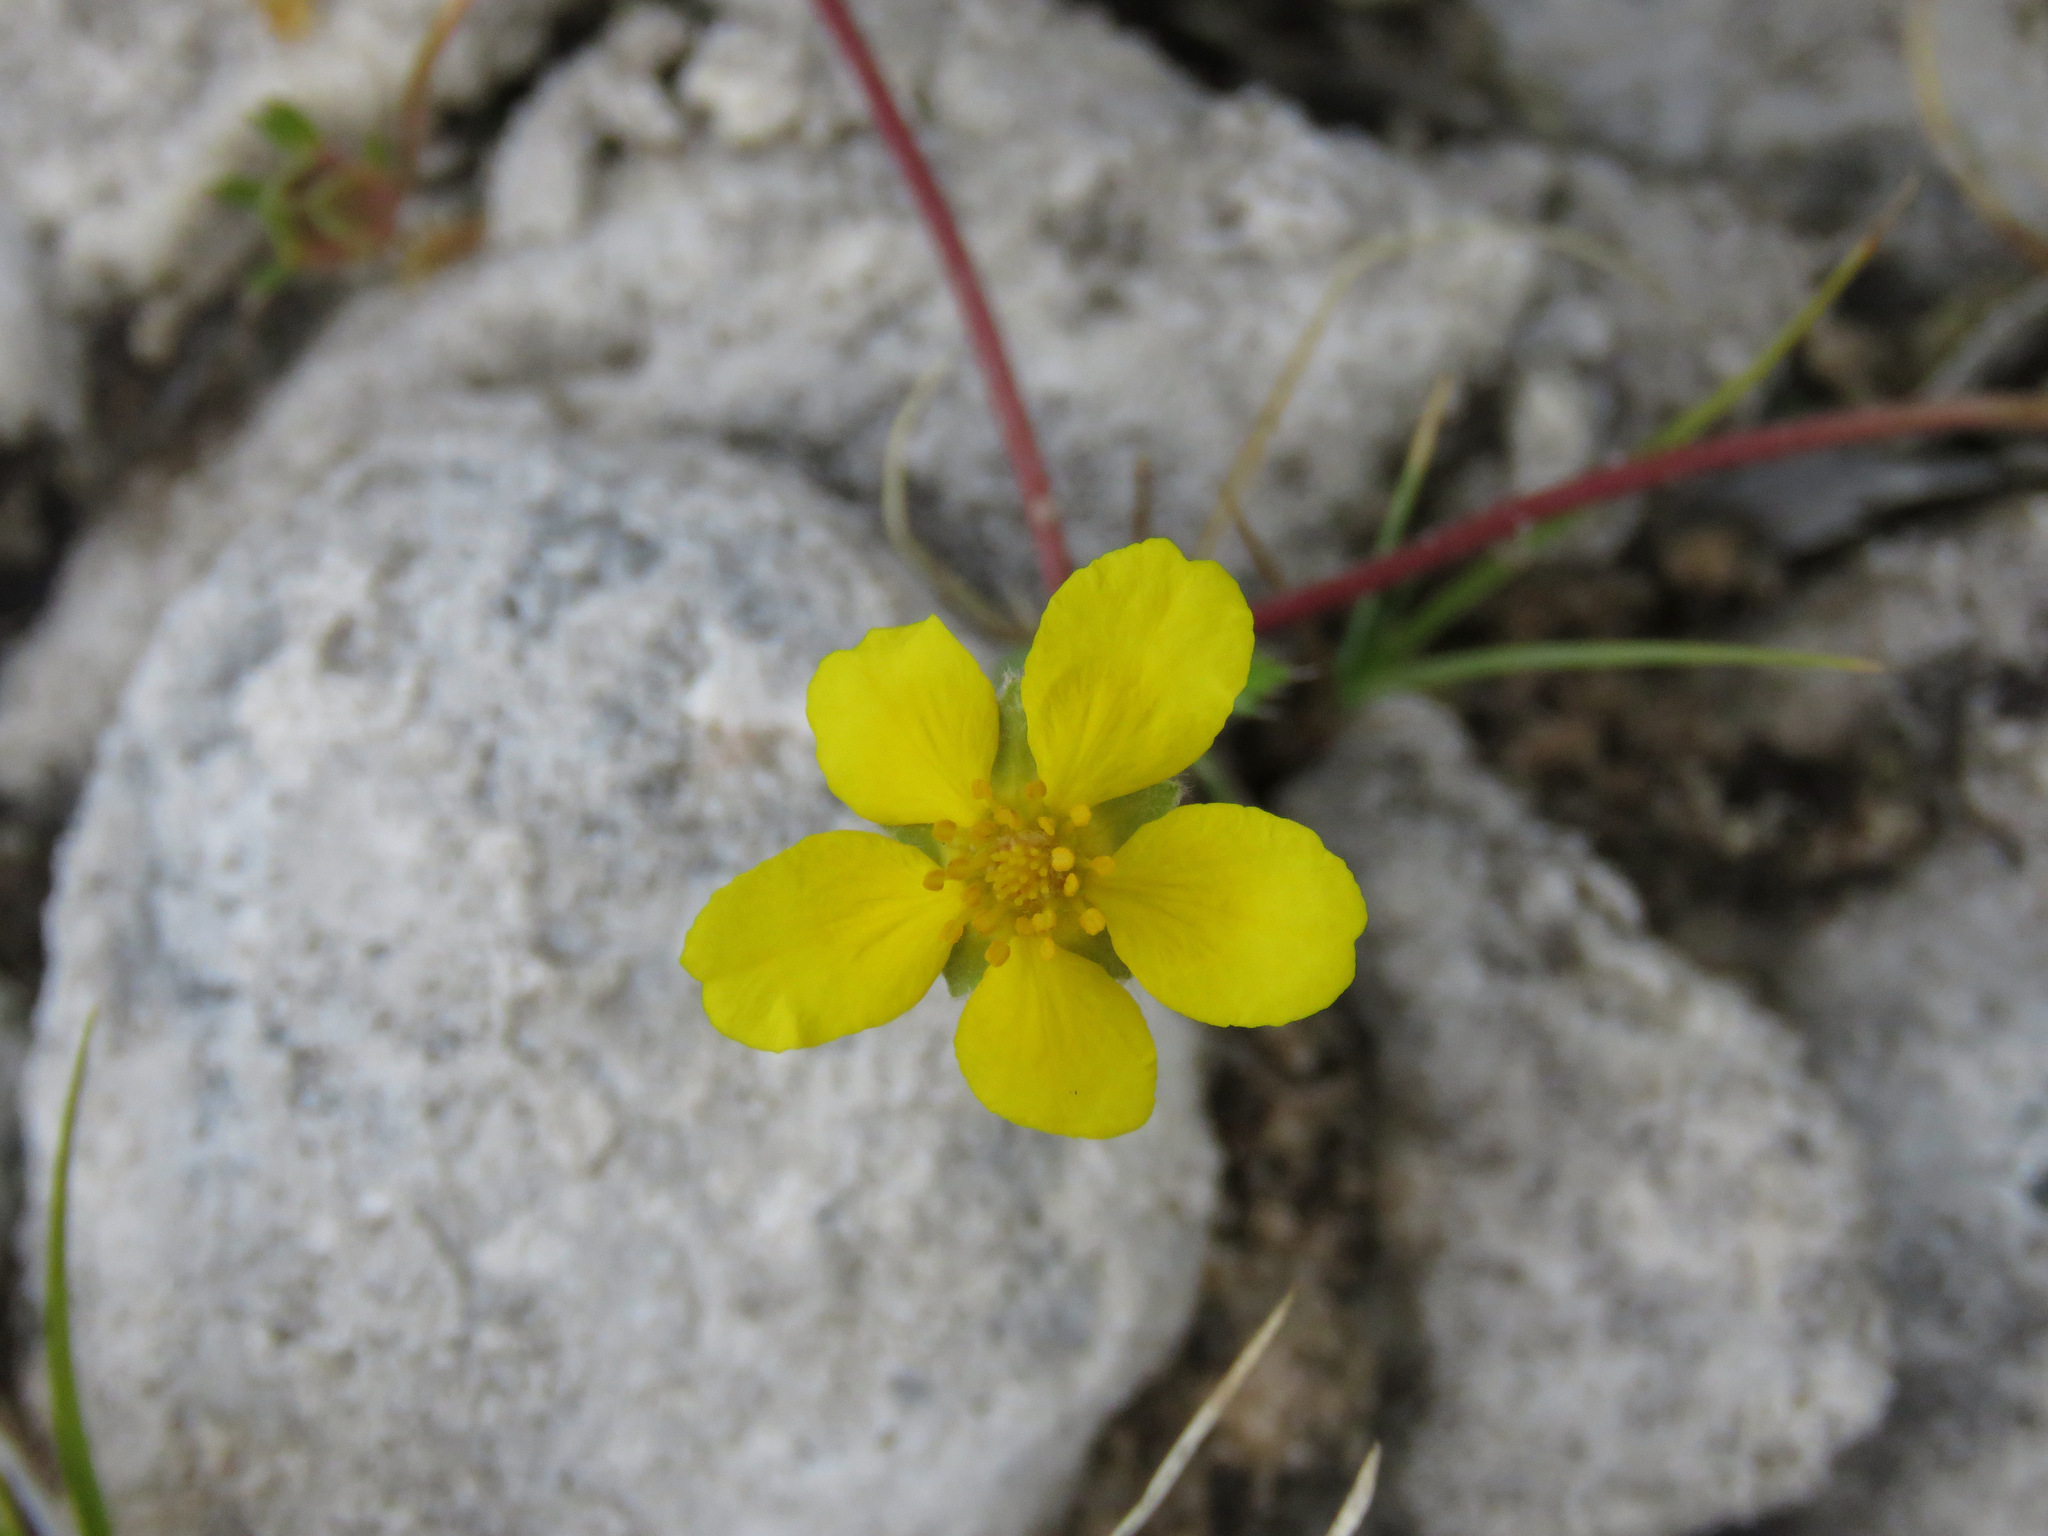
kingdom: Plantae
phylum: Tracheophyta
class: Magnoliopsida
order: Rosales
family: Rosaceae
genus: Argentina
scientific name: Argentina anserina
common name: Common silverweed
